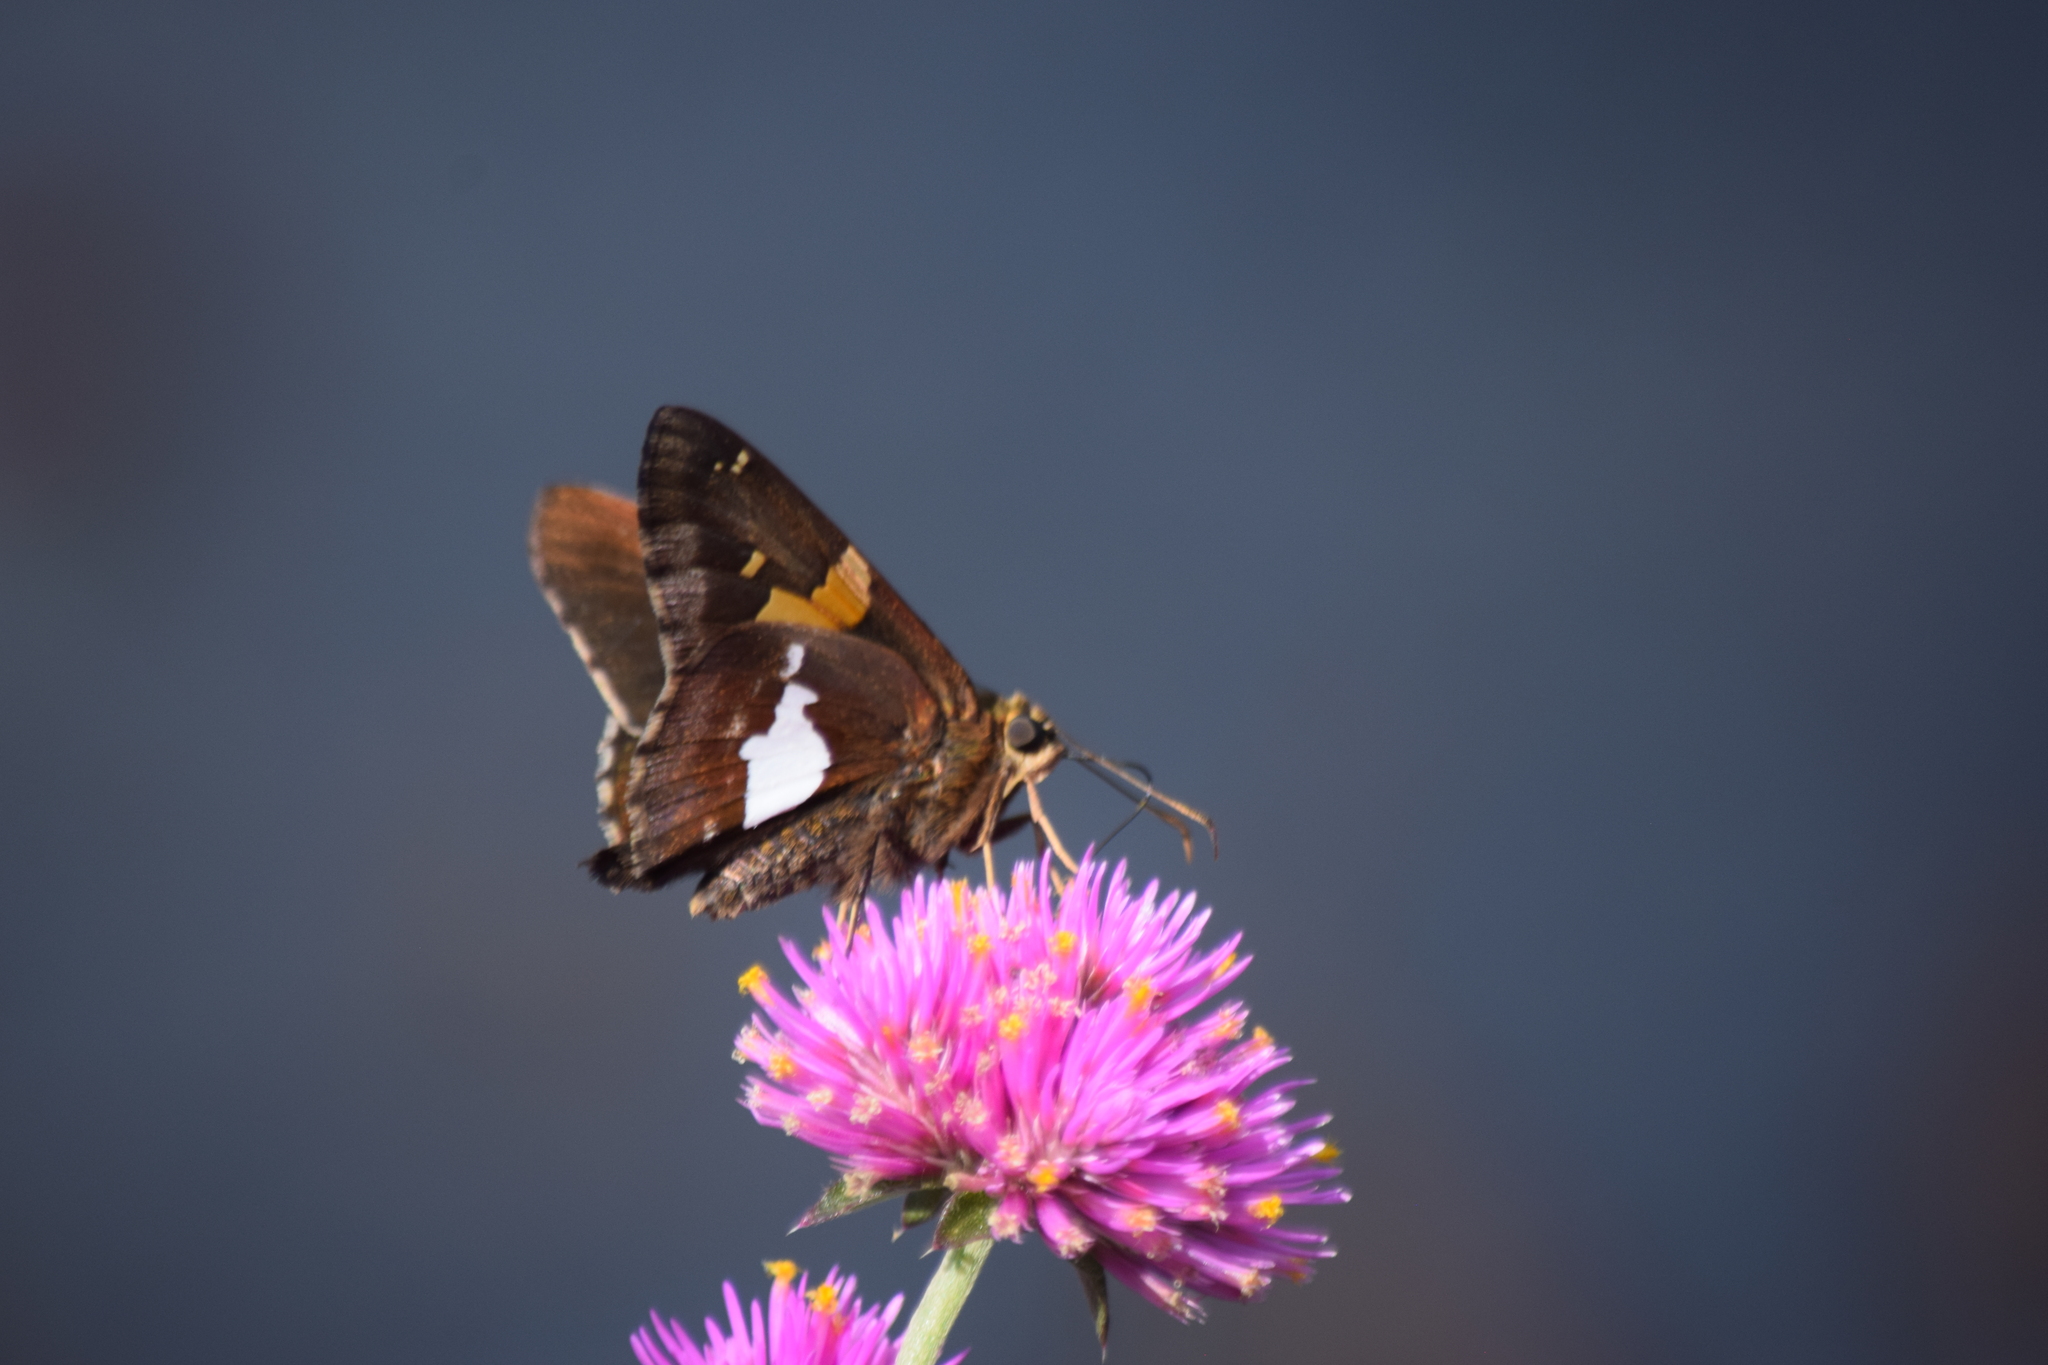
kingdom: Animalia
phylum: Arthropoda
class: Insecta
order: Lepidoptera
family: Hesperiidae
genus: Epargyreus
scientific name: Epargyreus clarus
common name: Silver-spotted skipper
